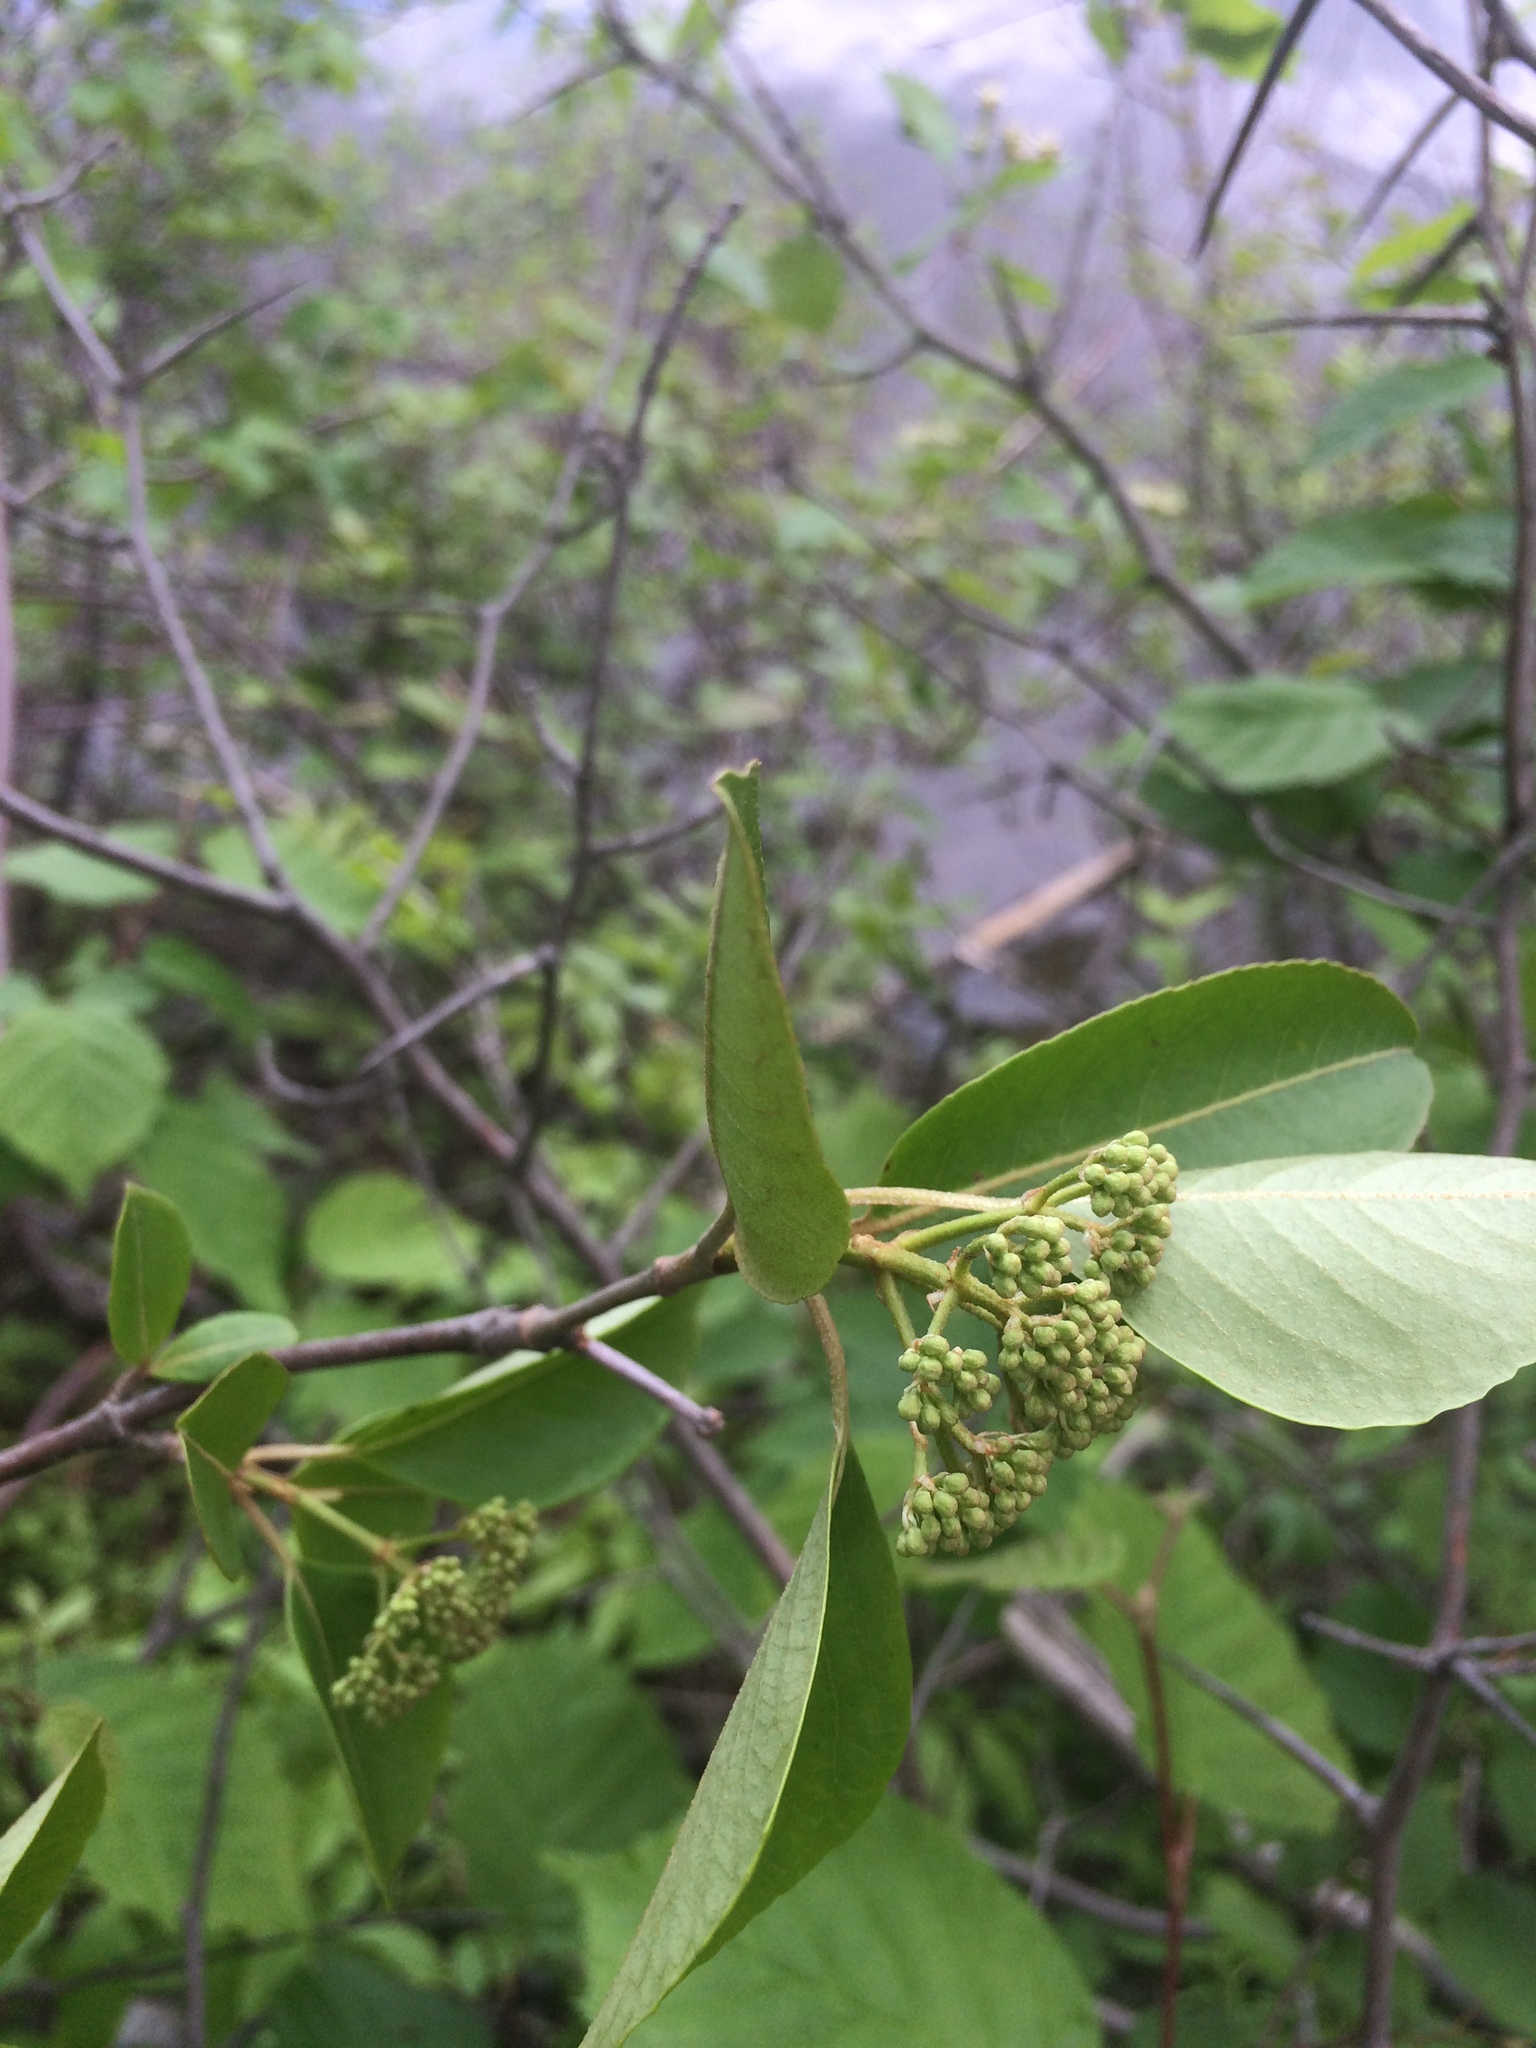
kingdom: Plantae
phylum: Tracheophyta
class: Magnoliopsida
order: Dipsacales
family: Viburnaceae
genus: Viburnum
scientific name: Viburnum cassinoides
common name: Swamp haw
